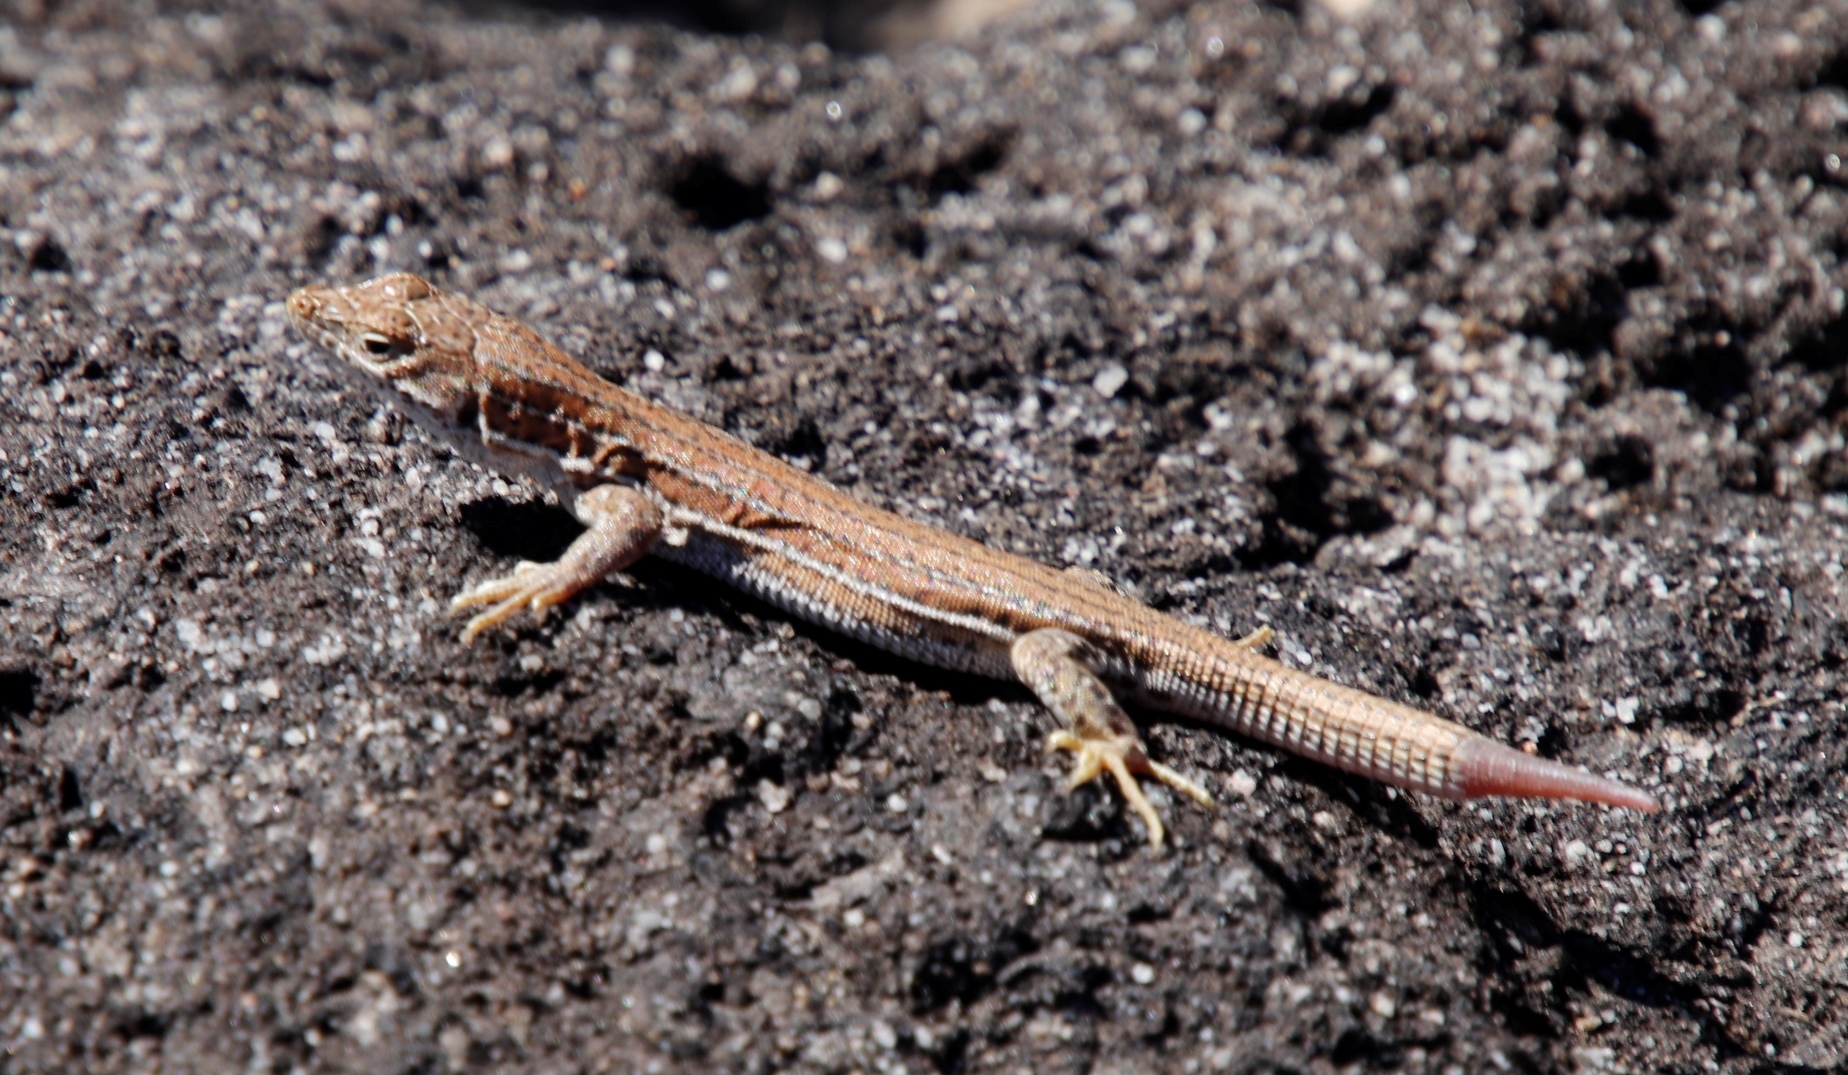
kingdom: Animalia
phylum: Chordata
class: Squamata
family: Lacertidae
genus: Pedioplanis
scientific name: Pedioplanis burchelli
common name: Burchell's sand lizard
